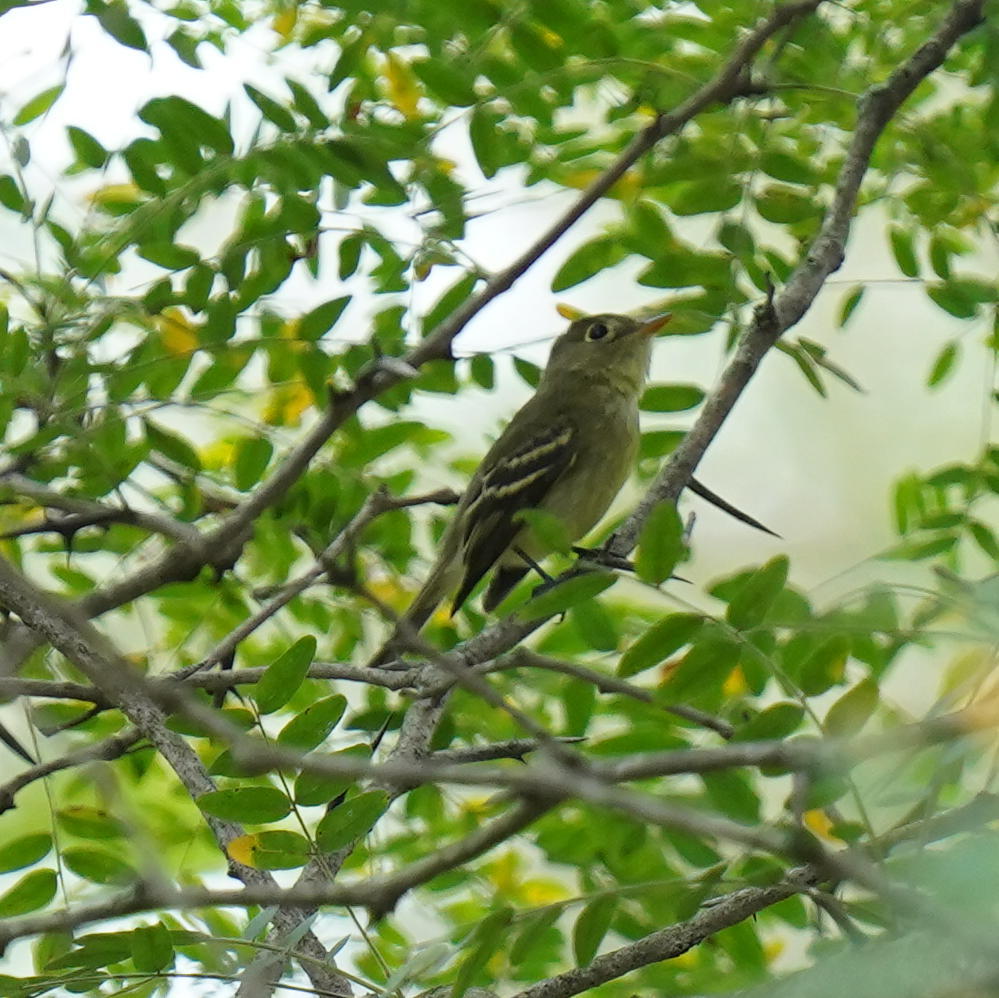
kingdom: Animalia
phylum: Chordata
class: Aves
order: Passeriformes
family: Tyrannidae
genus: Empidonax
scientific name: Empidonax flaviventris
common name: Yellow-bellied flycatcher
